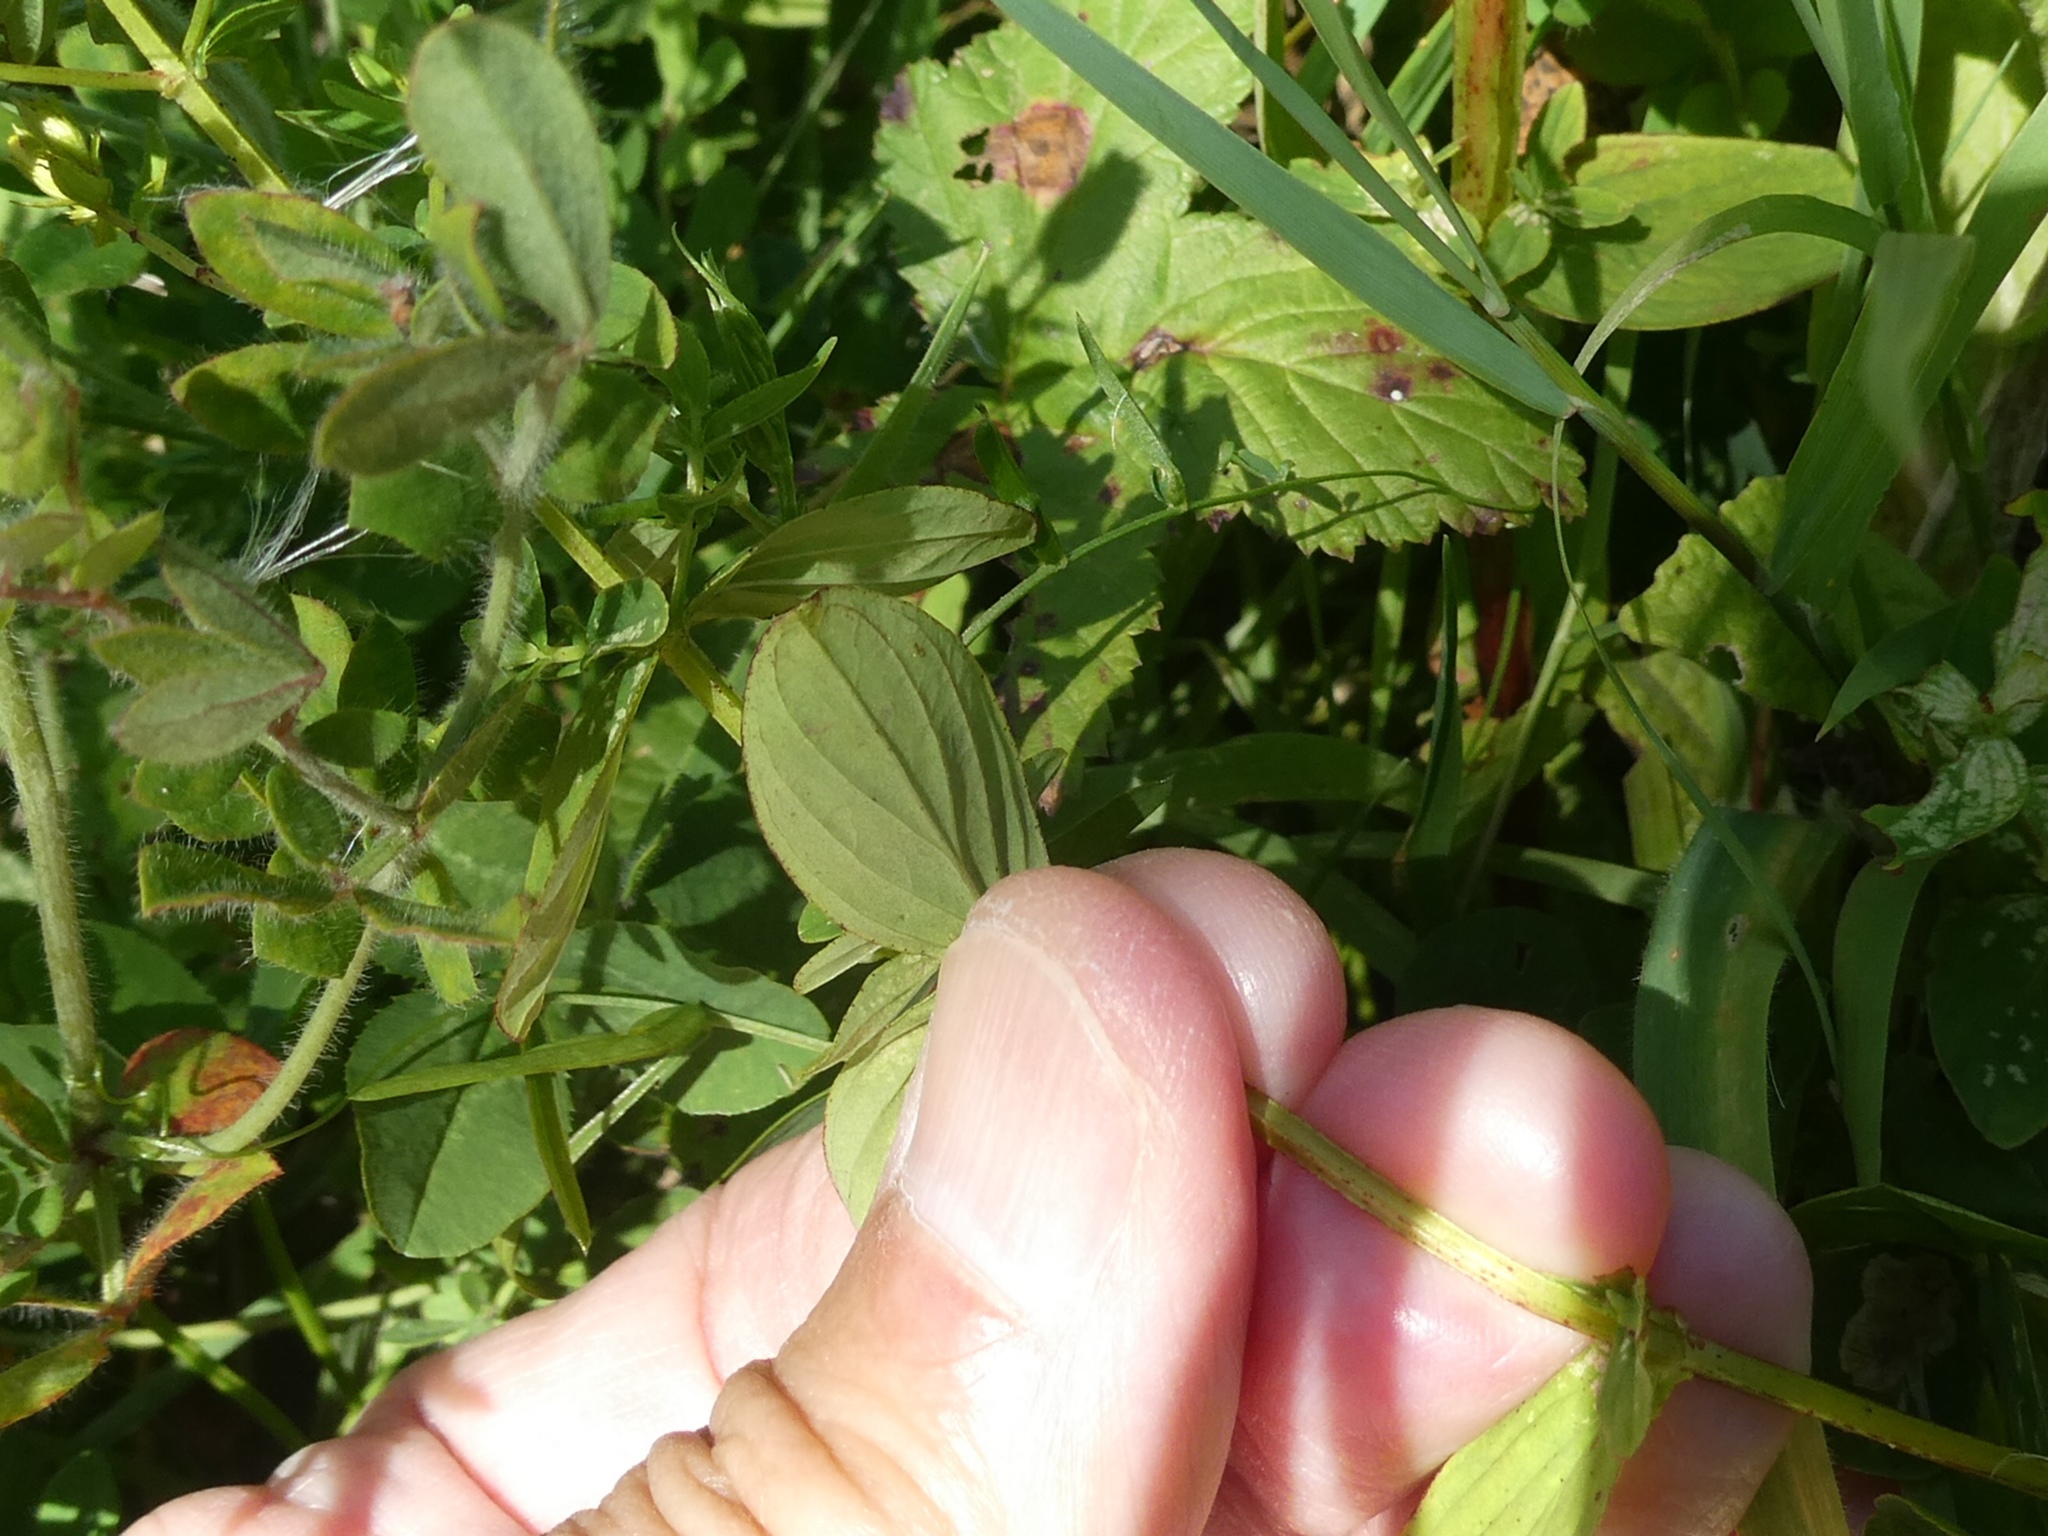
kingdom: Plantae
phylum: Tracheophyta
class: Magnoliopsida
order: Malpighiales
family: Hypericaceae
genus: Hypericum
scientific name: Hypericum tetrapterum
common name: Square-stalked st. john's-wort
